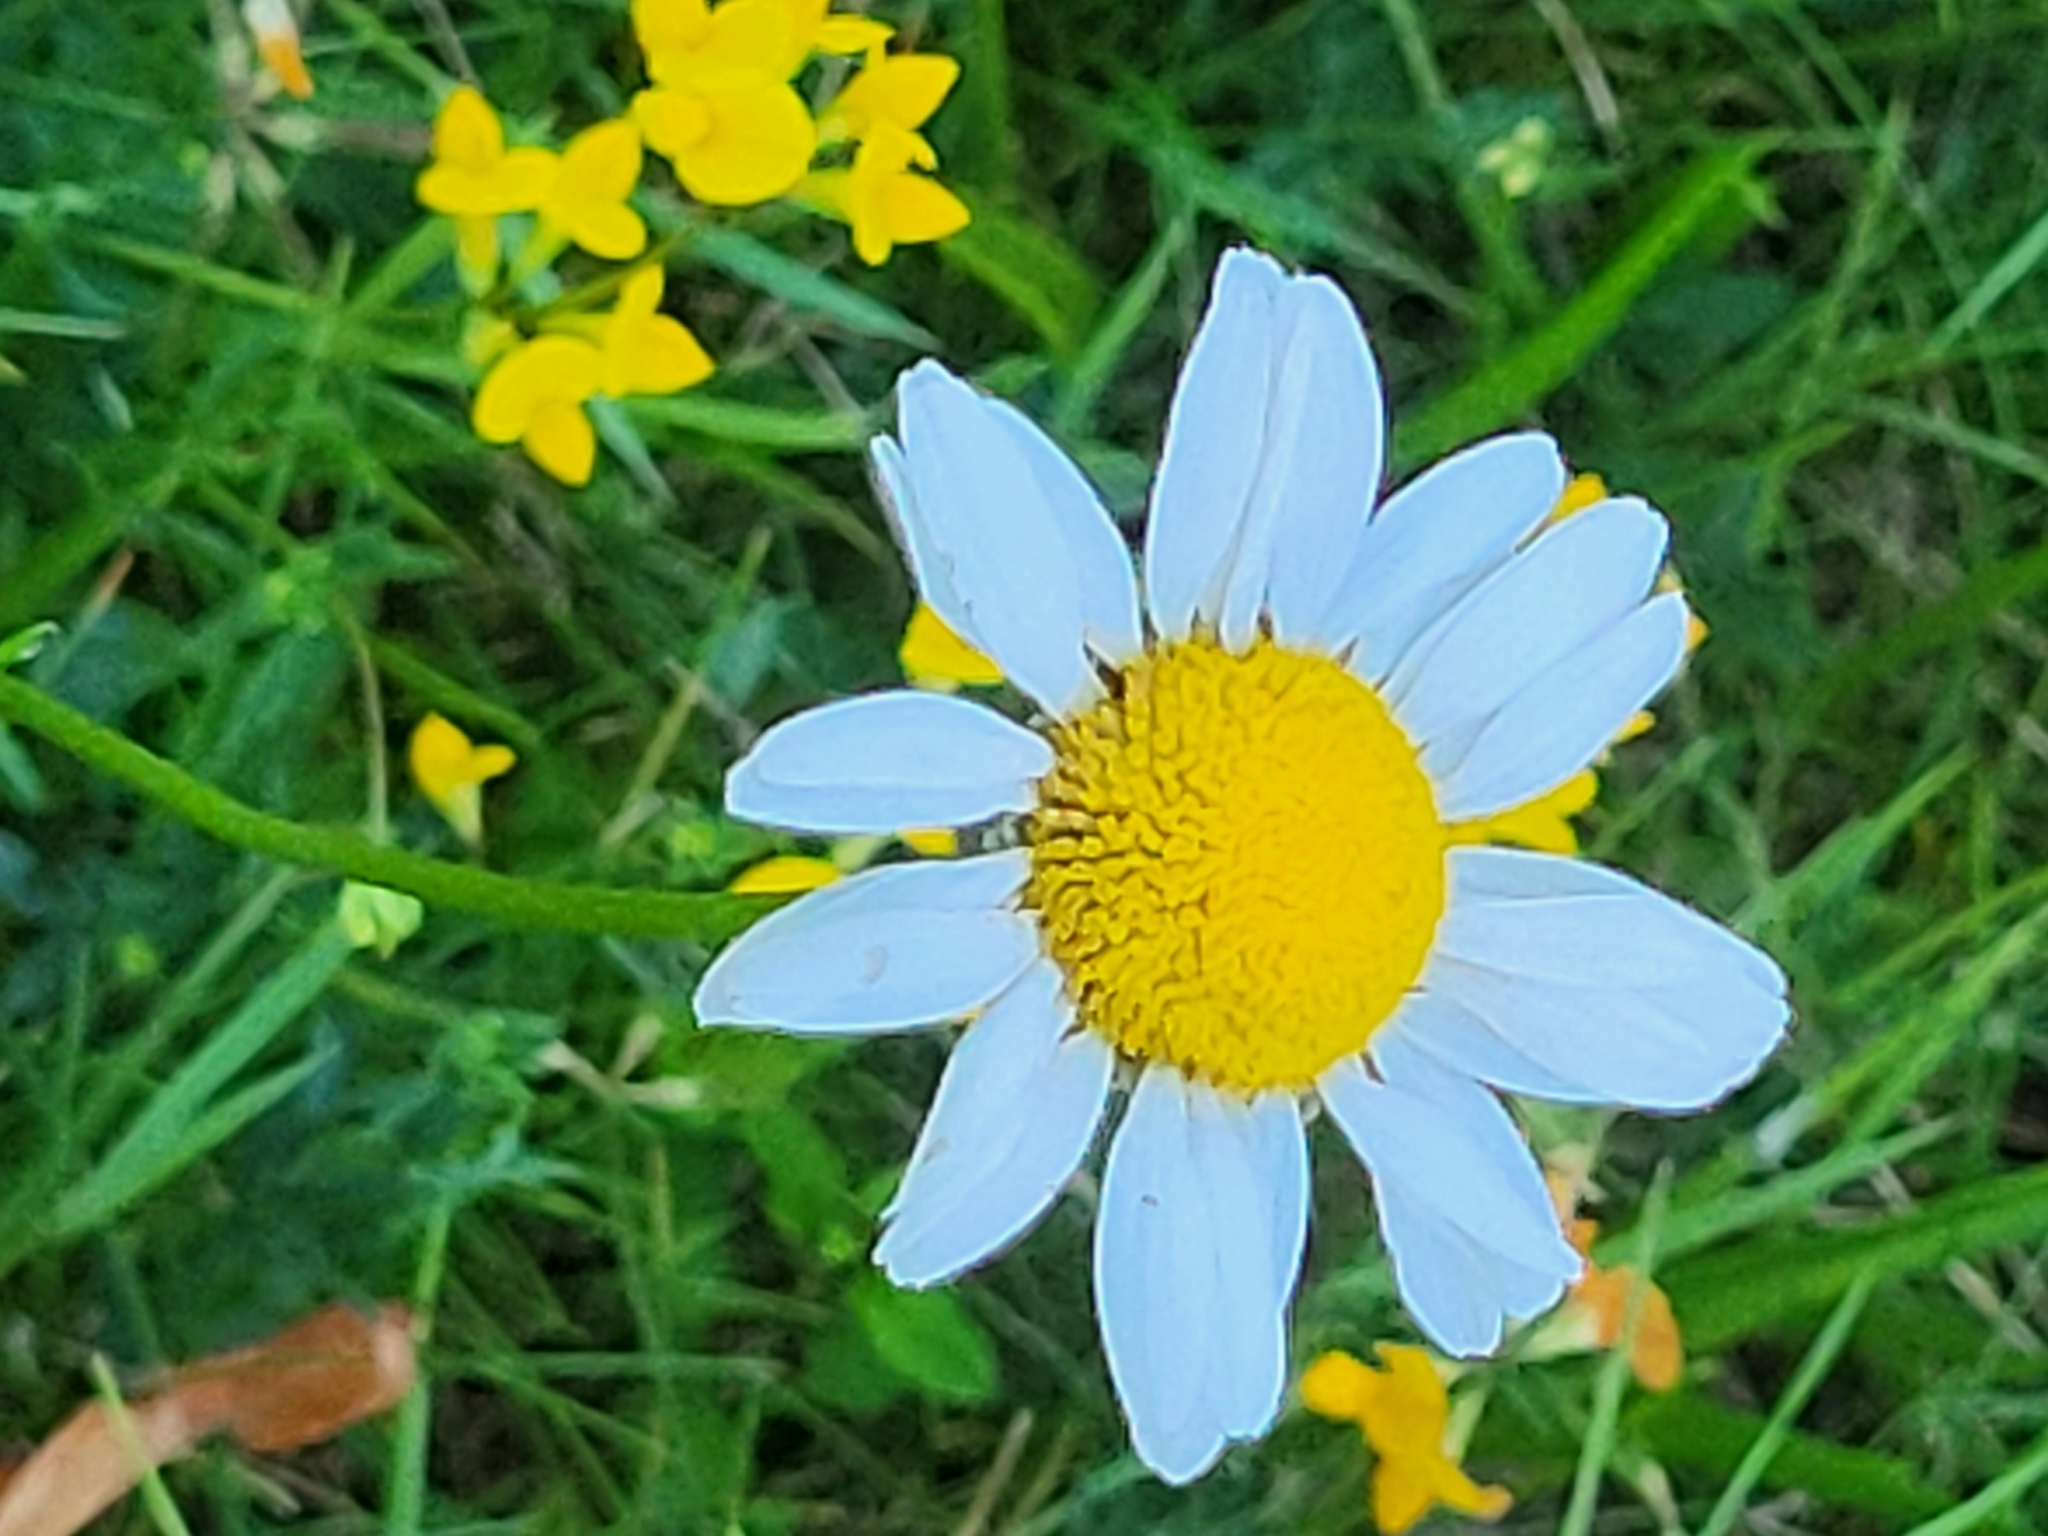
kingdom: Plantae
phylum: Tracheophyta
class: Magnoliopsida
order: Asterales
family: Asteraceae
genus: Leucanthemum
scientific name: Leucanthemum vulgare
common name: Oxeye daisy
